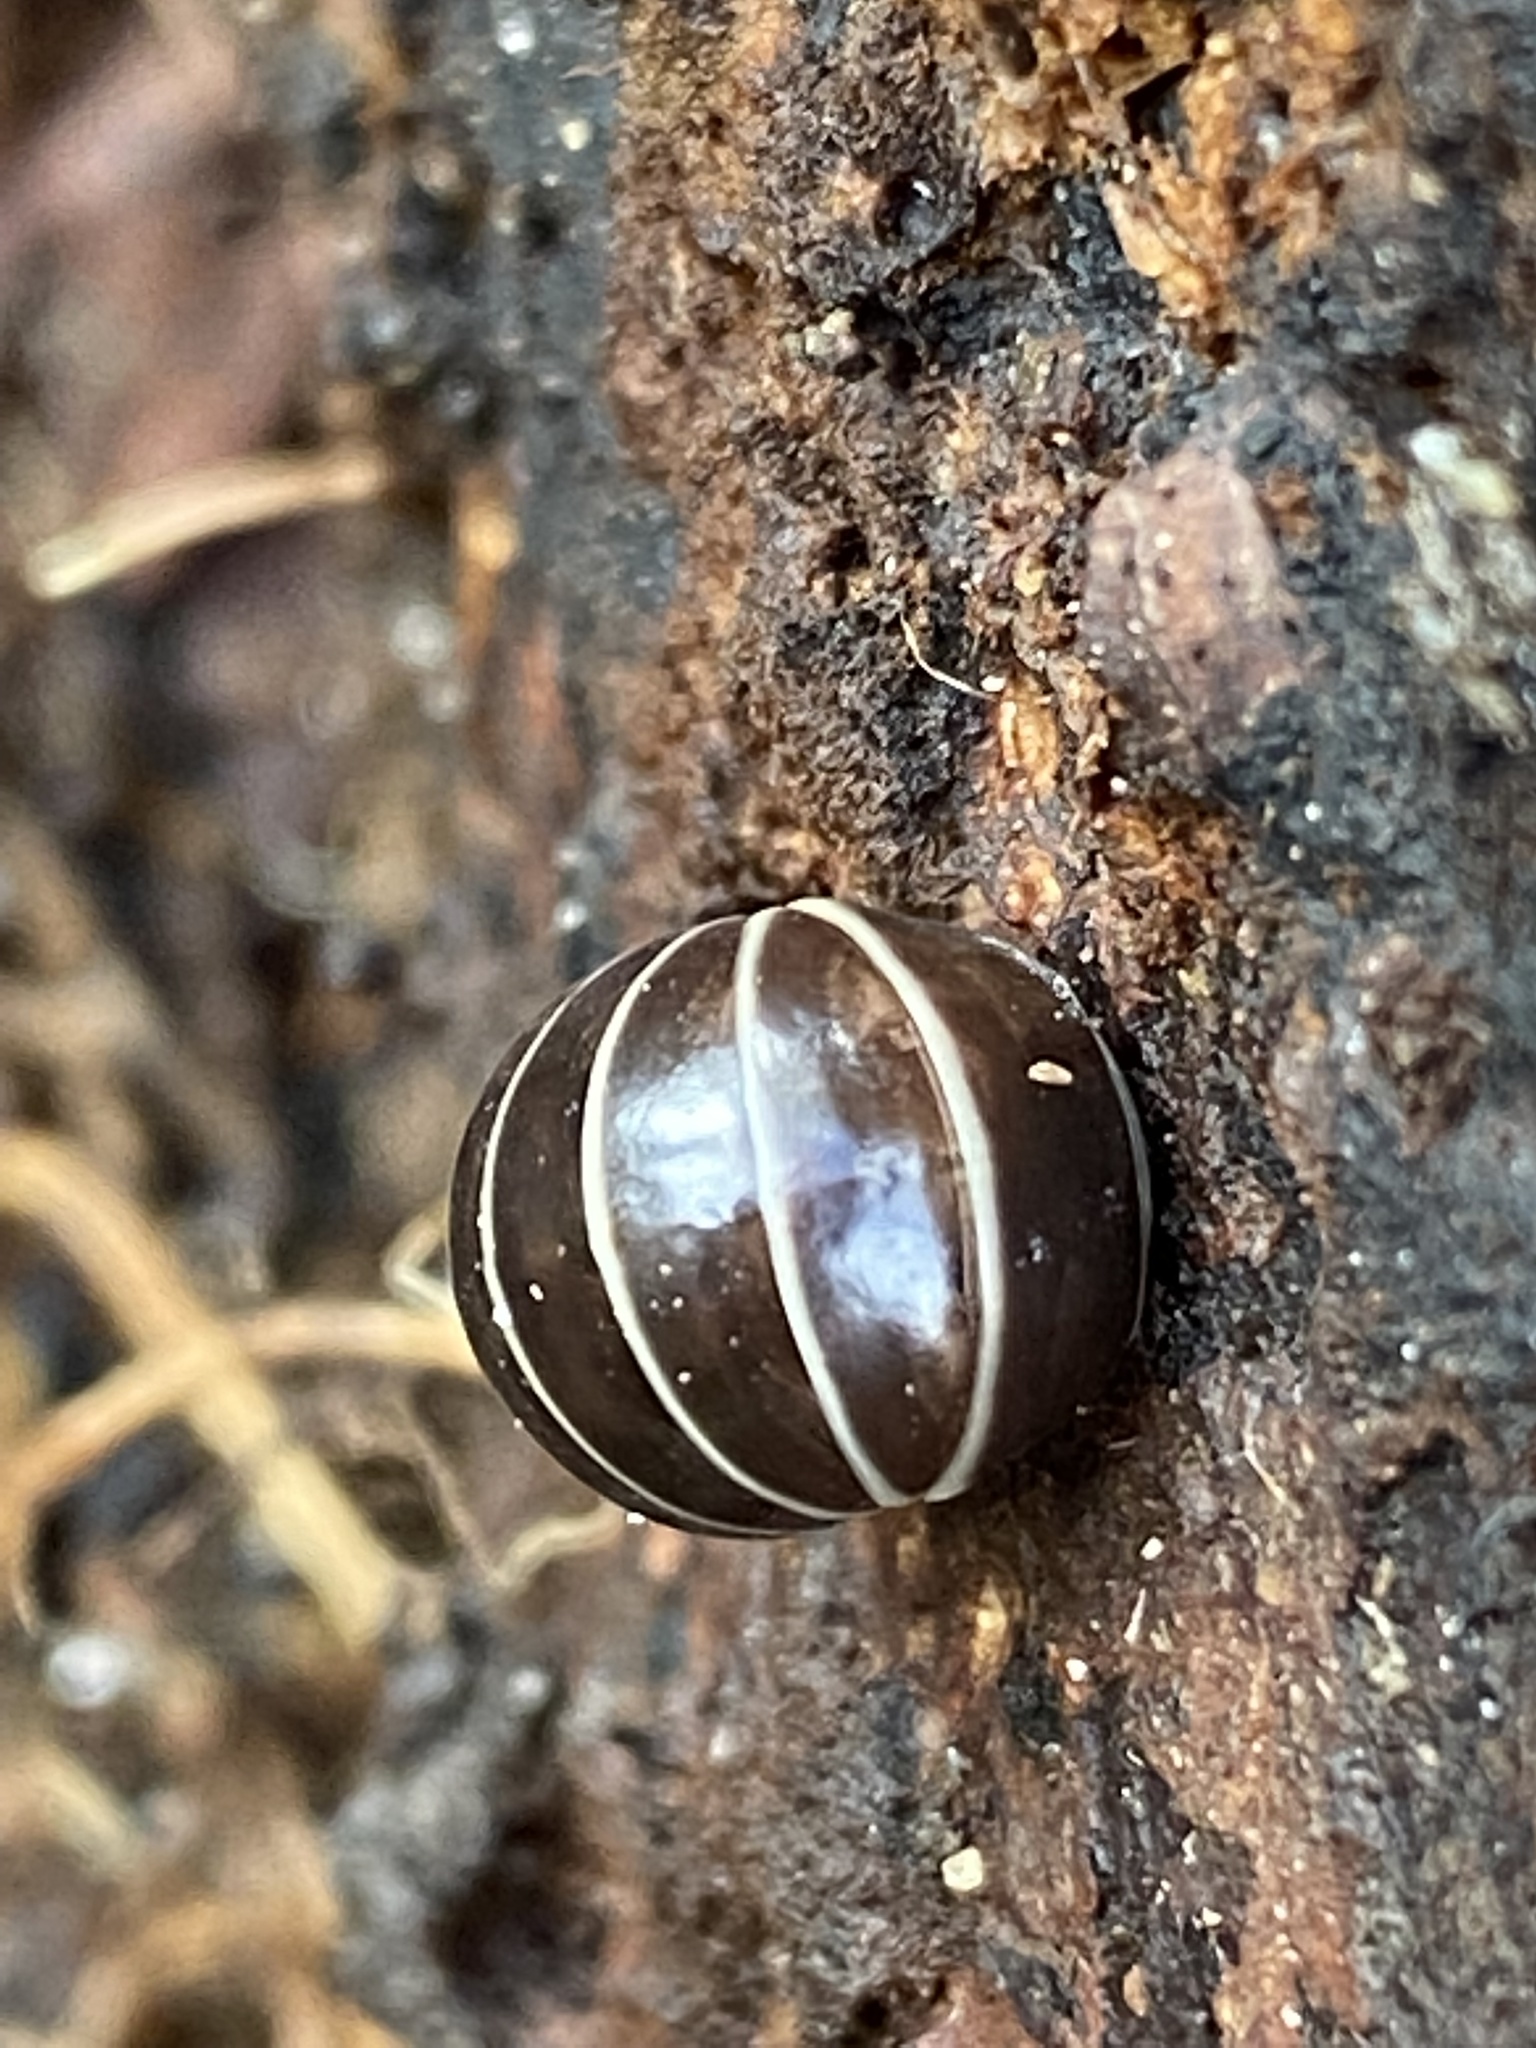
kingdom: Animalia
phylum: Arthropoda
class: Diplopoda
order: Glomerida
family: Glomeridae
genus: Glomeris
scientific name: Glomeris marginata
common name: Bordered pill millipede
